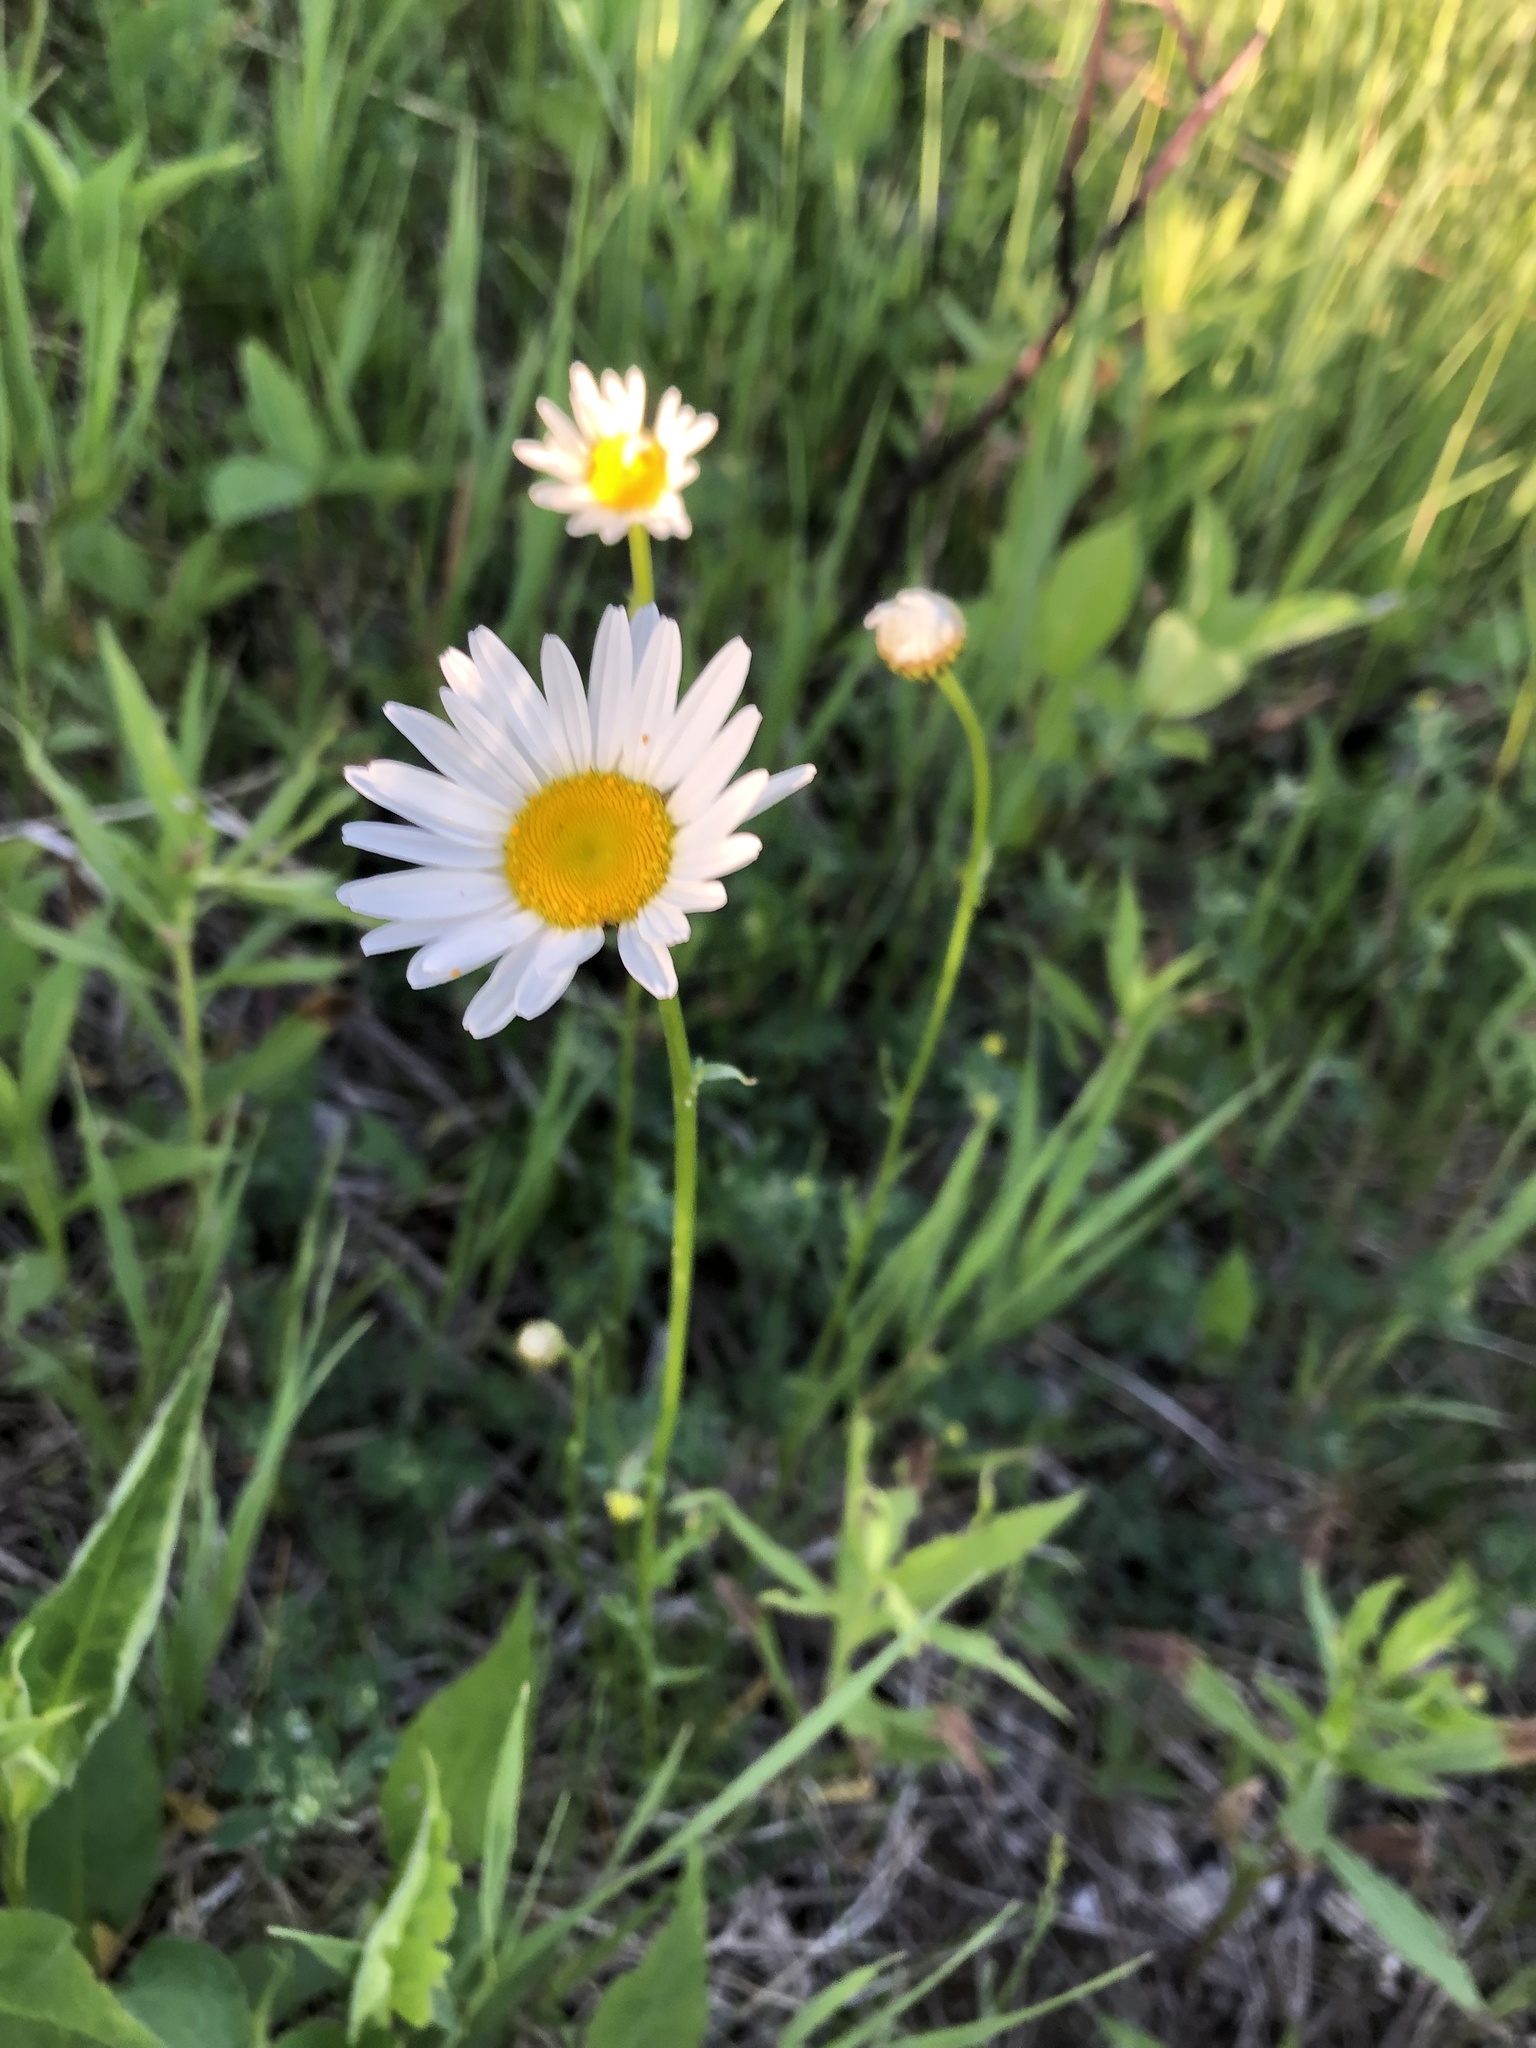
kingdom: Plantae
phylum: Tracheophyta
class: Magnoliopsida
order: Asterales
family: Asteraceae
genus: Leucanthemum
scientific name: Leucanthemum vulgare
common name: Oxeye daisy
